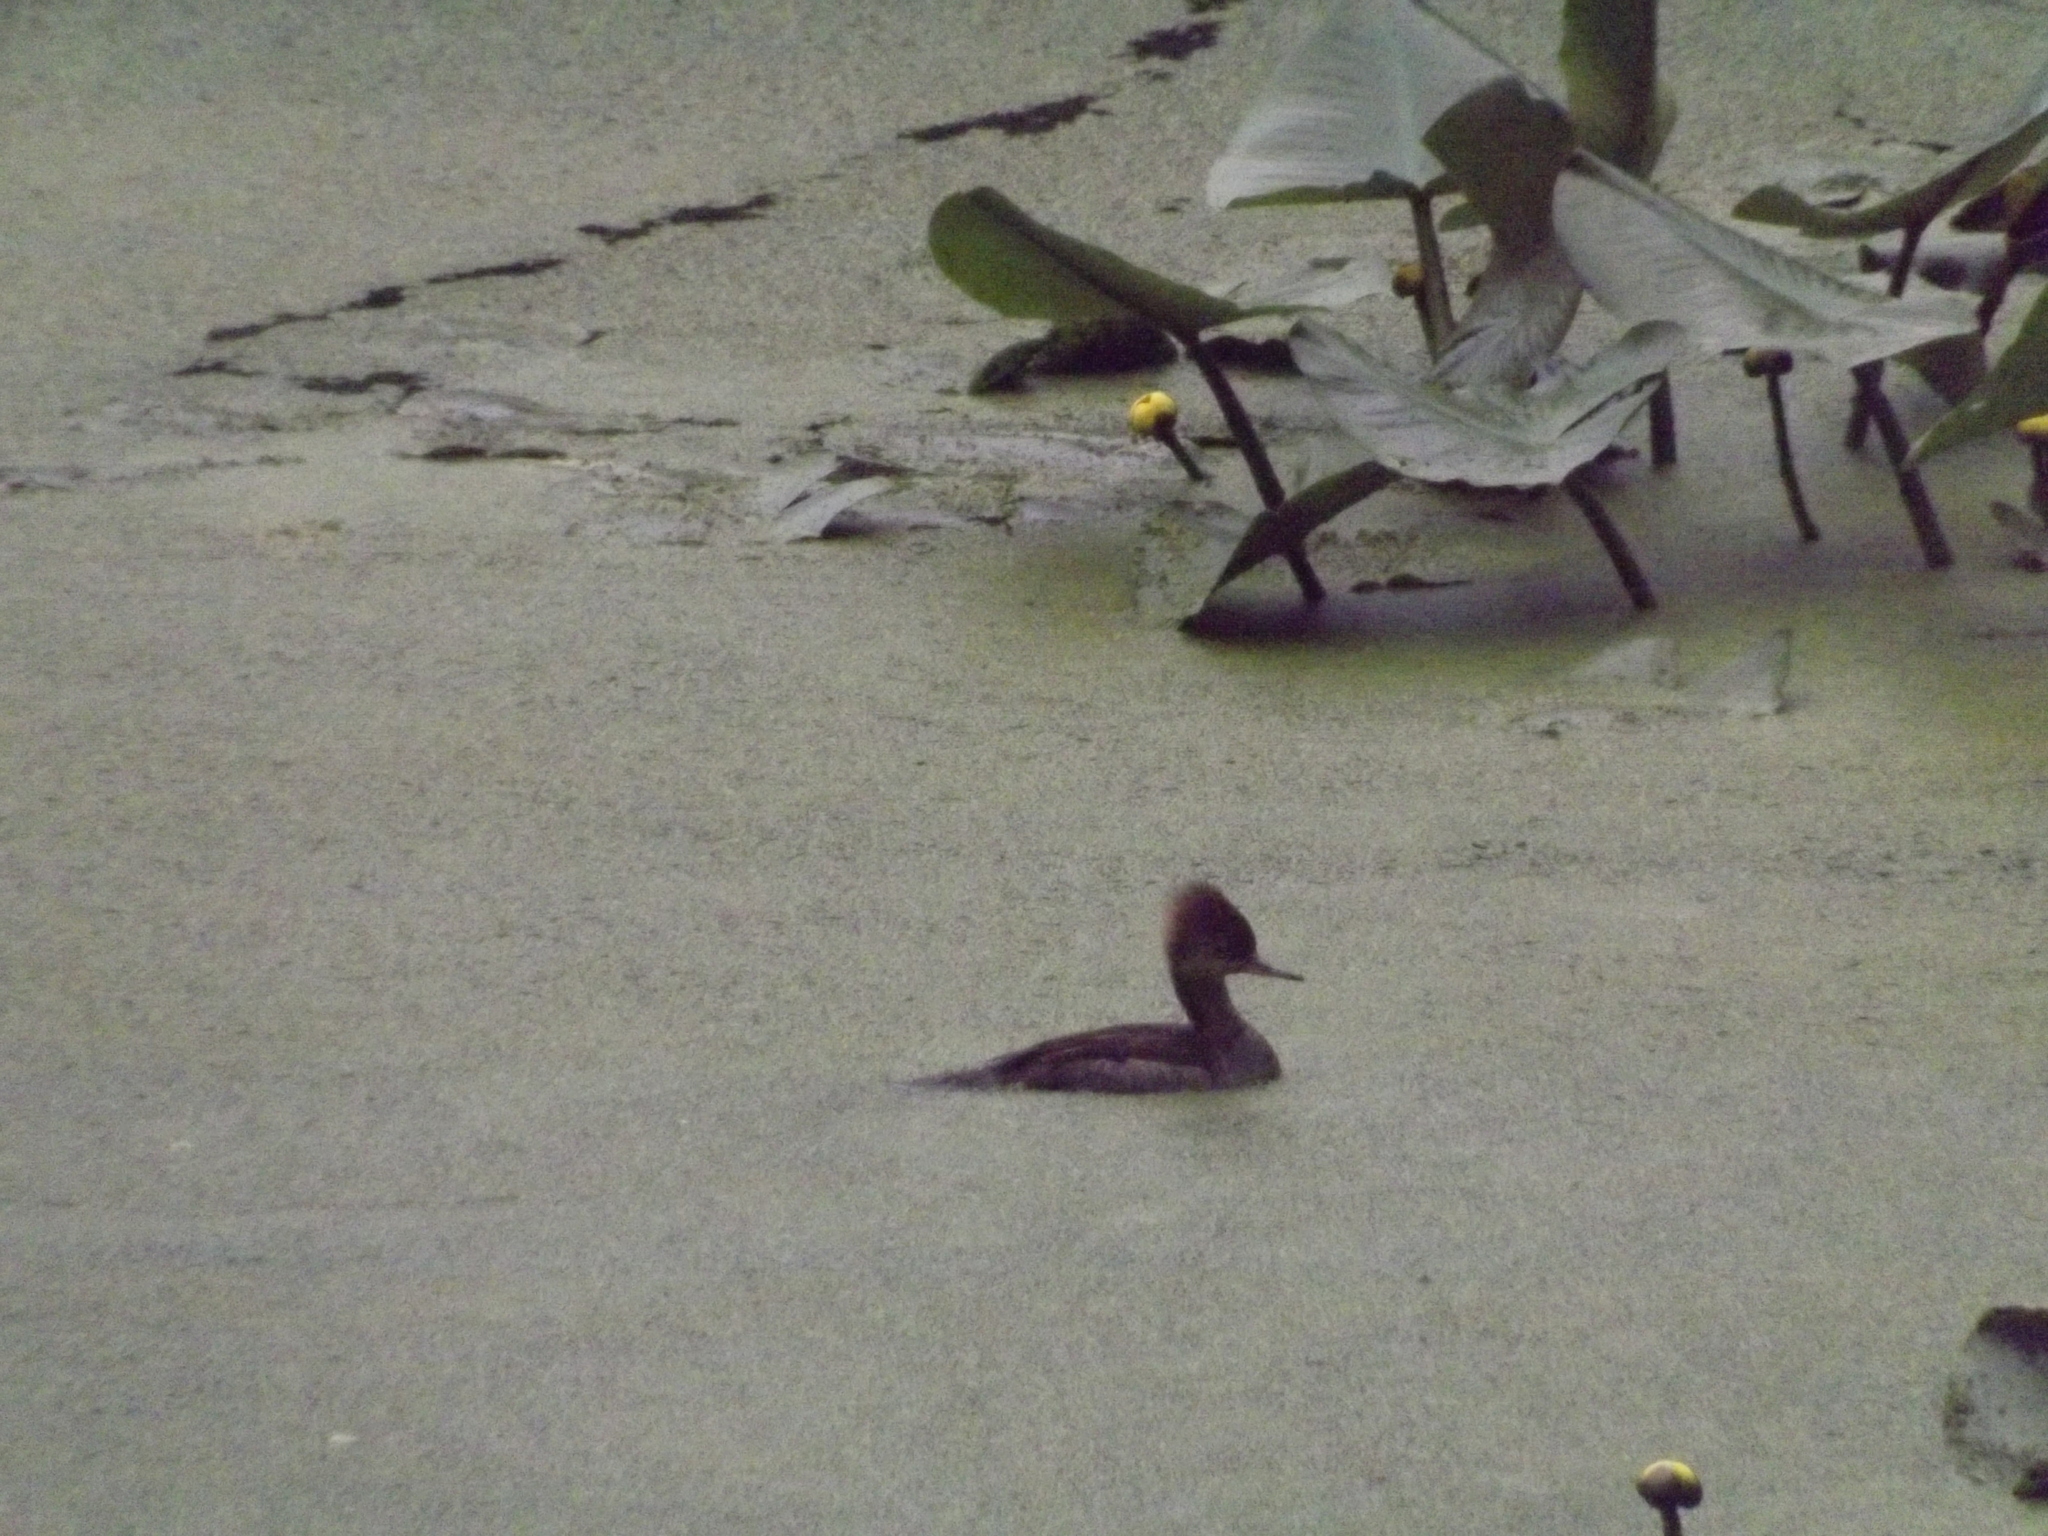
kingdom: Animalia
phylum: Chordata
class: Aves
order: Anseriformes
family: Anatidae
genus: Lophodytes
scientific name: Lophodytes cucullatus
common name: Hooded merganser
